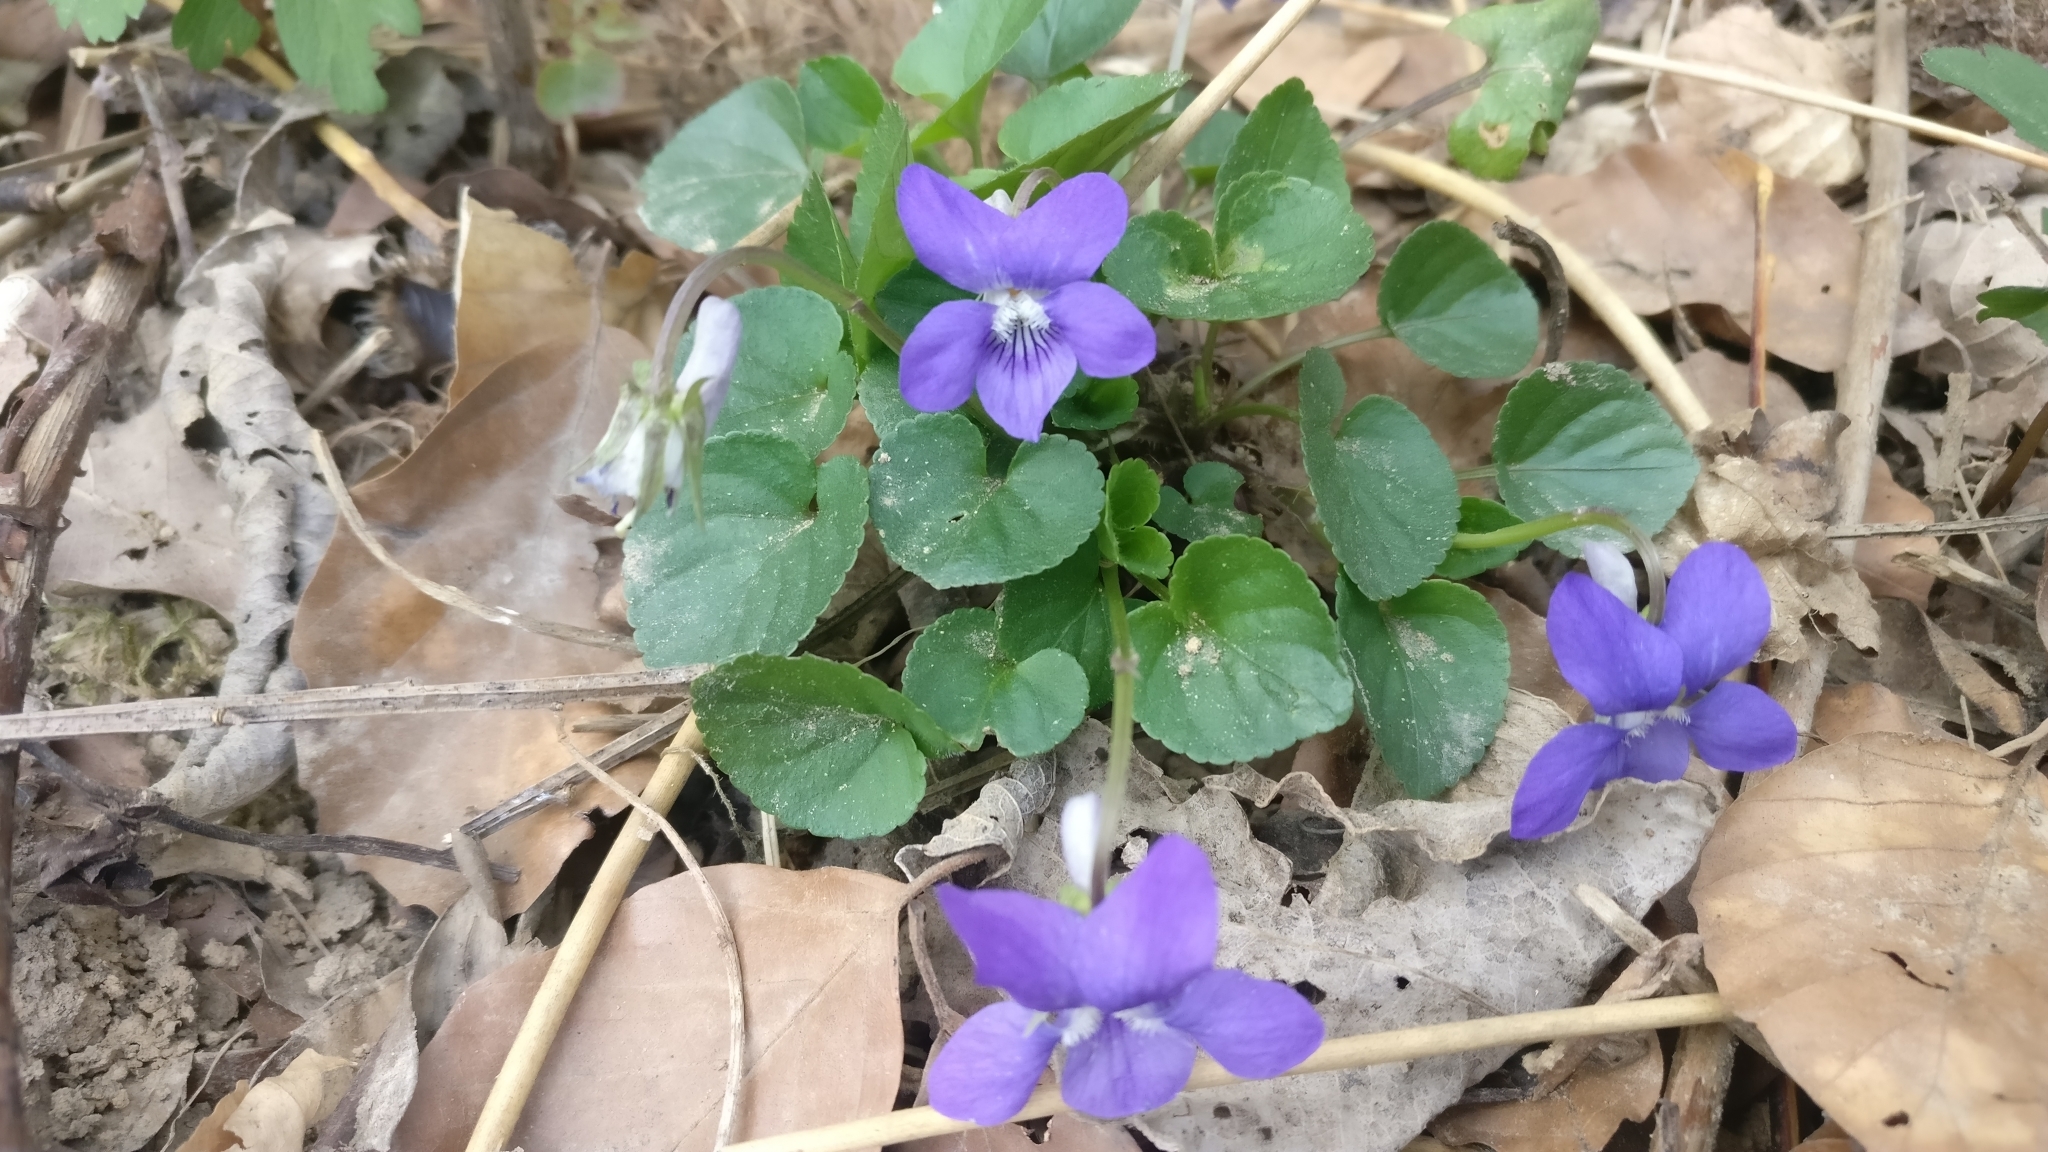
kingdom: Plantae
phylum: Tracheophyta
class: Magnoliopsida
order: Malpighiales
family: Violaceae
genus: Viola
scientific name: Viola riviniana
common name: Common dog-violet
